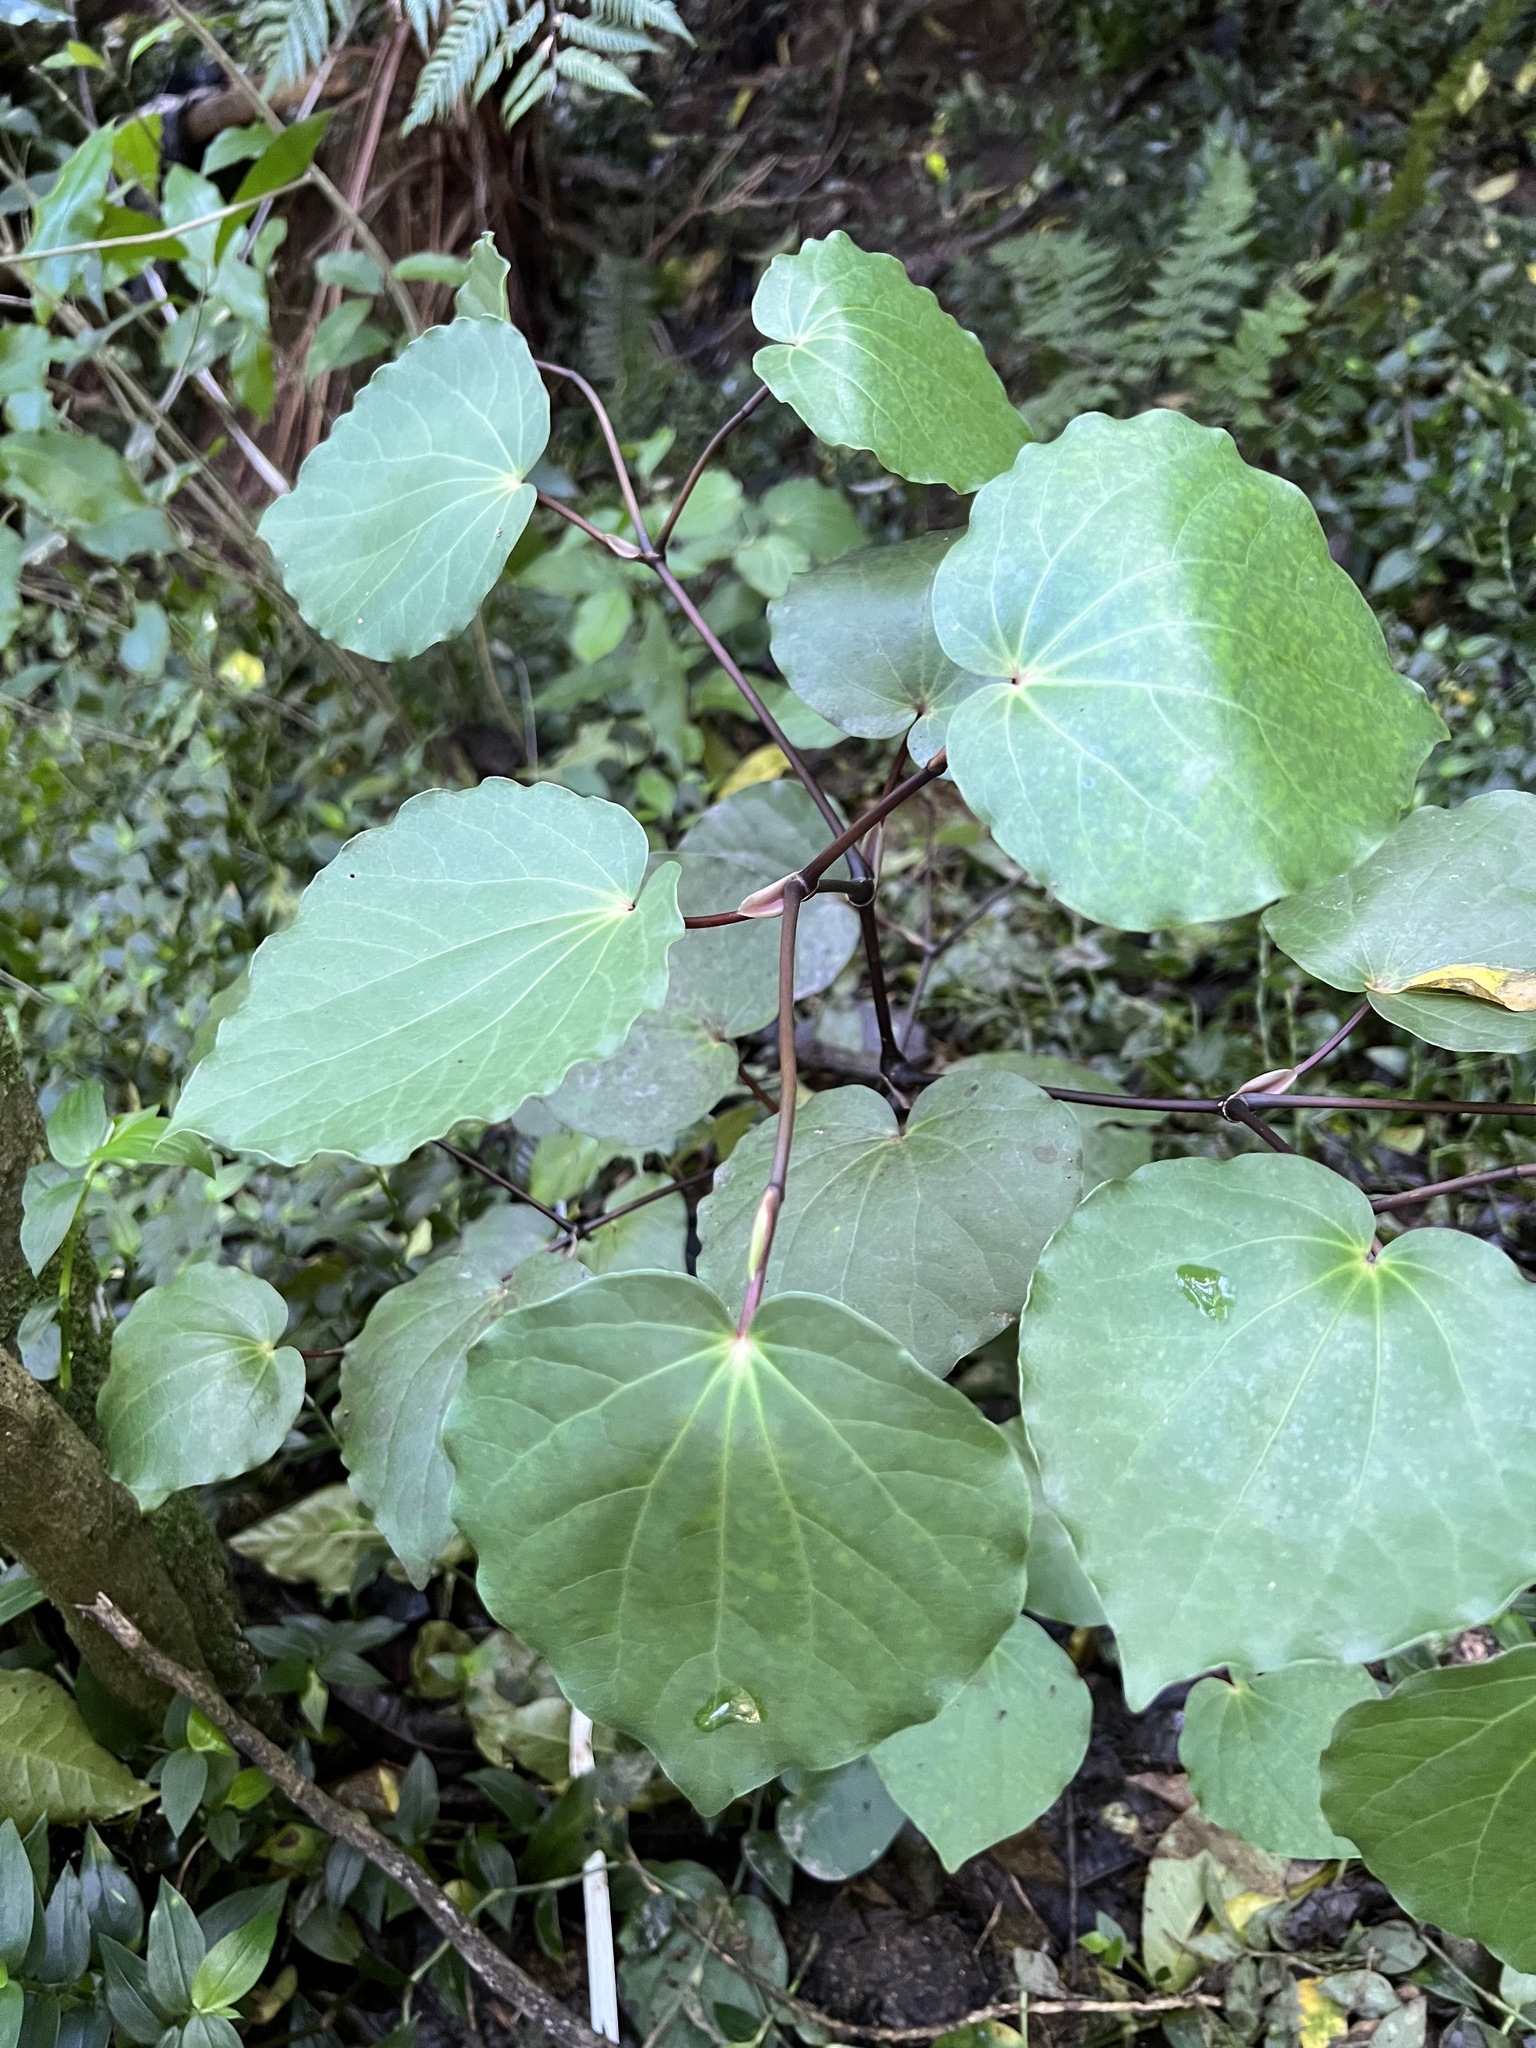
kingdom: Plantae
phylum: Tracheophyta
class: Magnoliopsida
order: Piperales
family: Piperaceae
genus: Macropiper
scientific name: Macropiper excelsum
